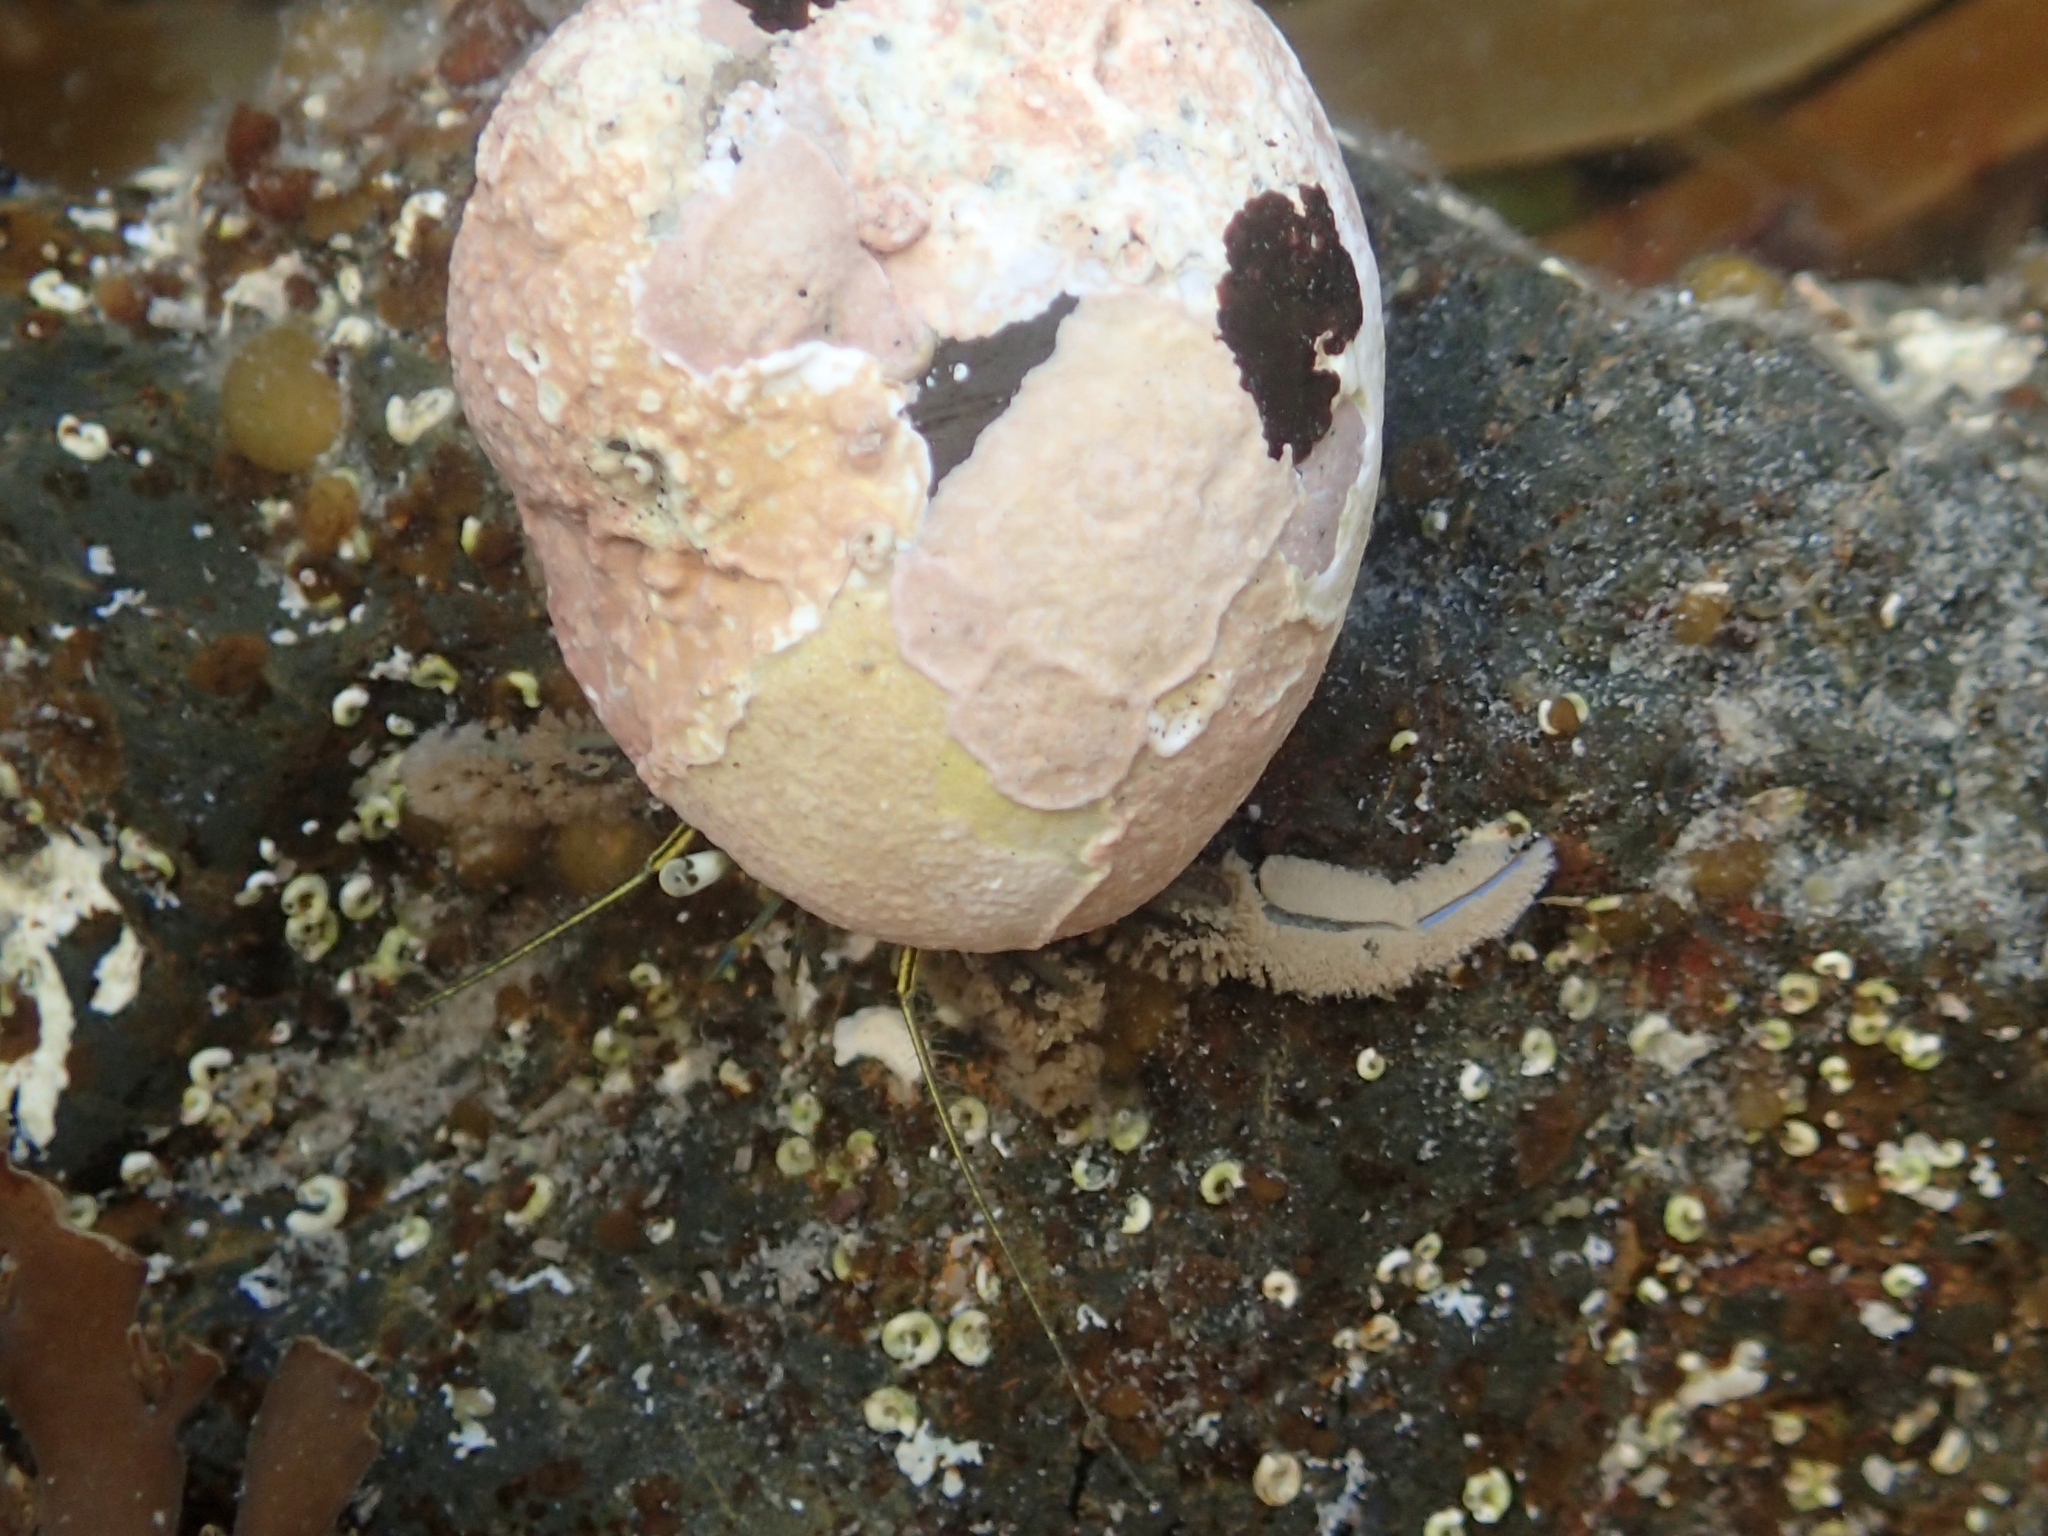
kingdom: Animalia
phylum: Arthropoda
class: Malacostraca
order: Decapoda
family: Paguridae
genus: Pagurus
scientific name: Pagurus novizealandiae
